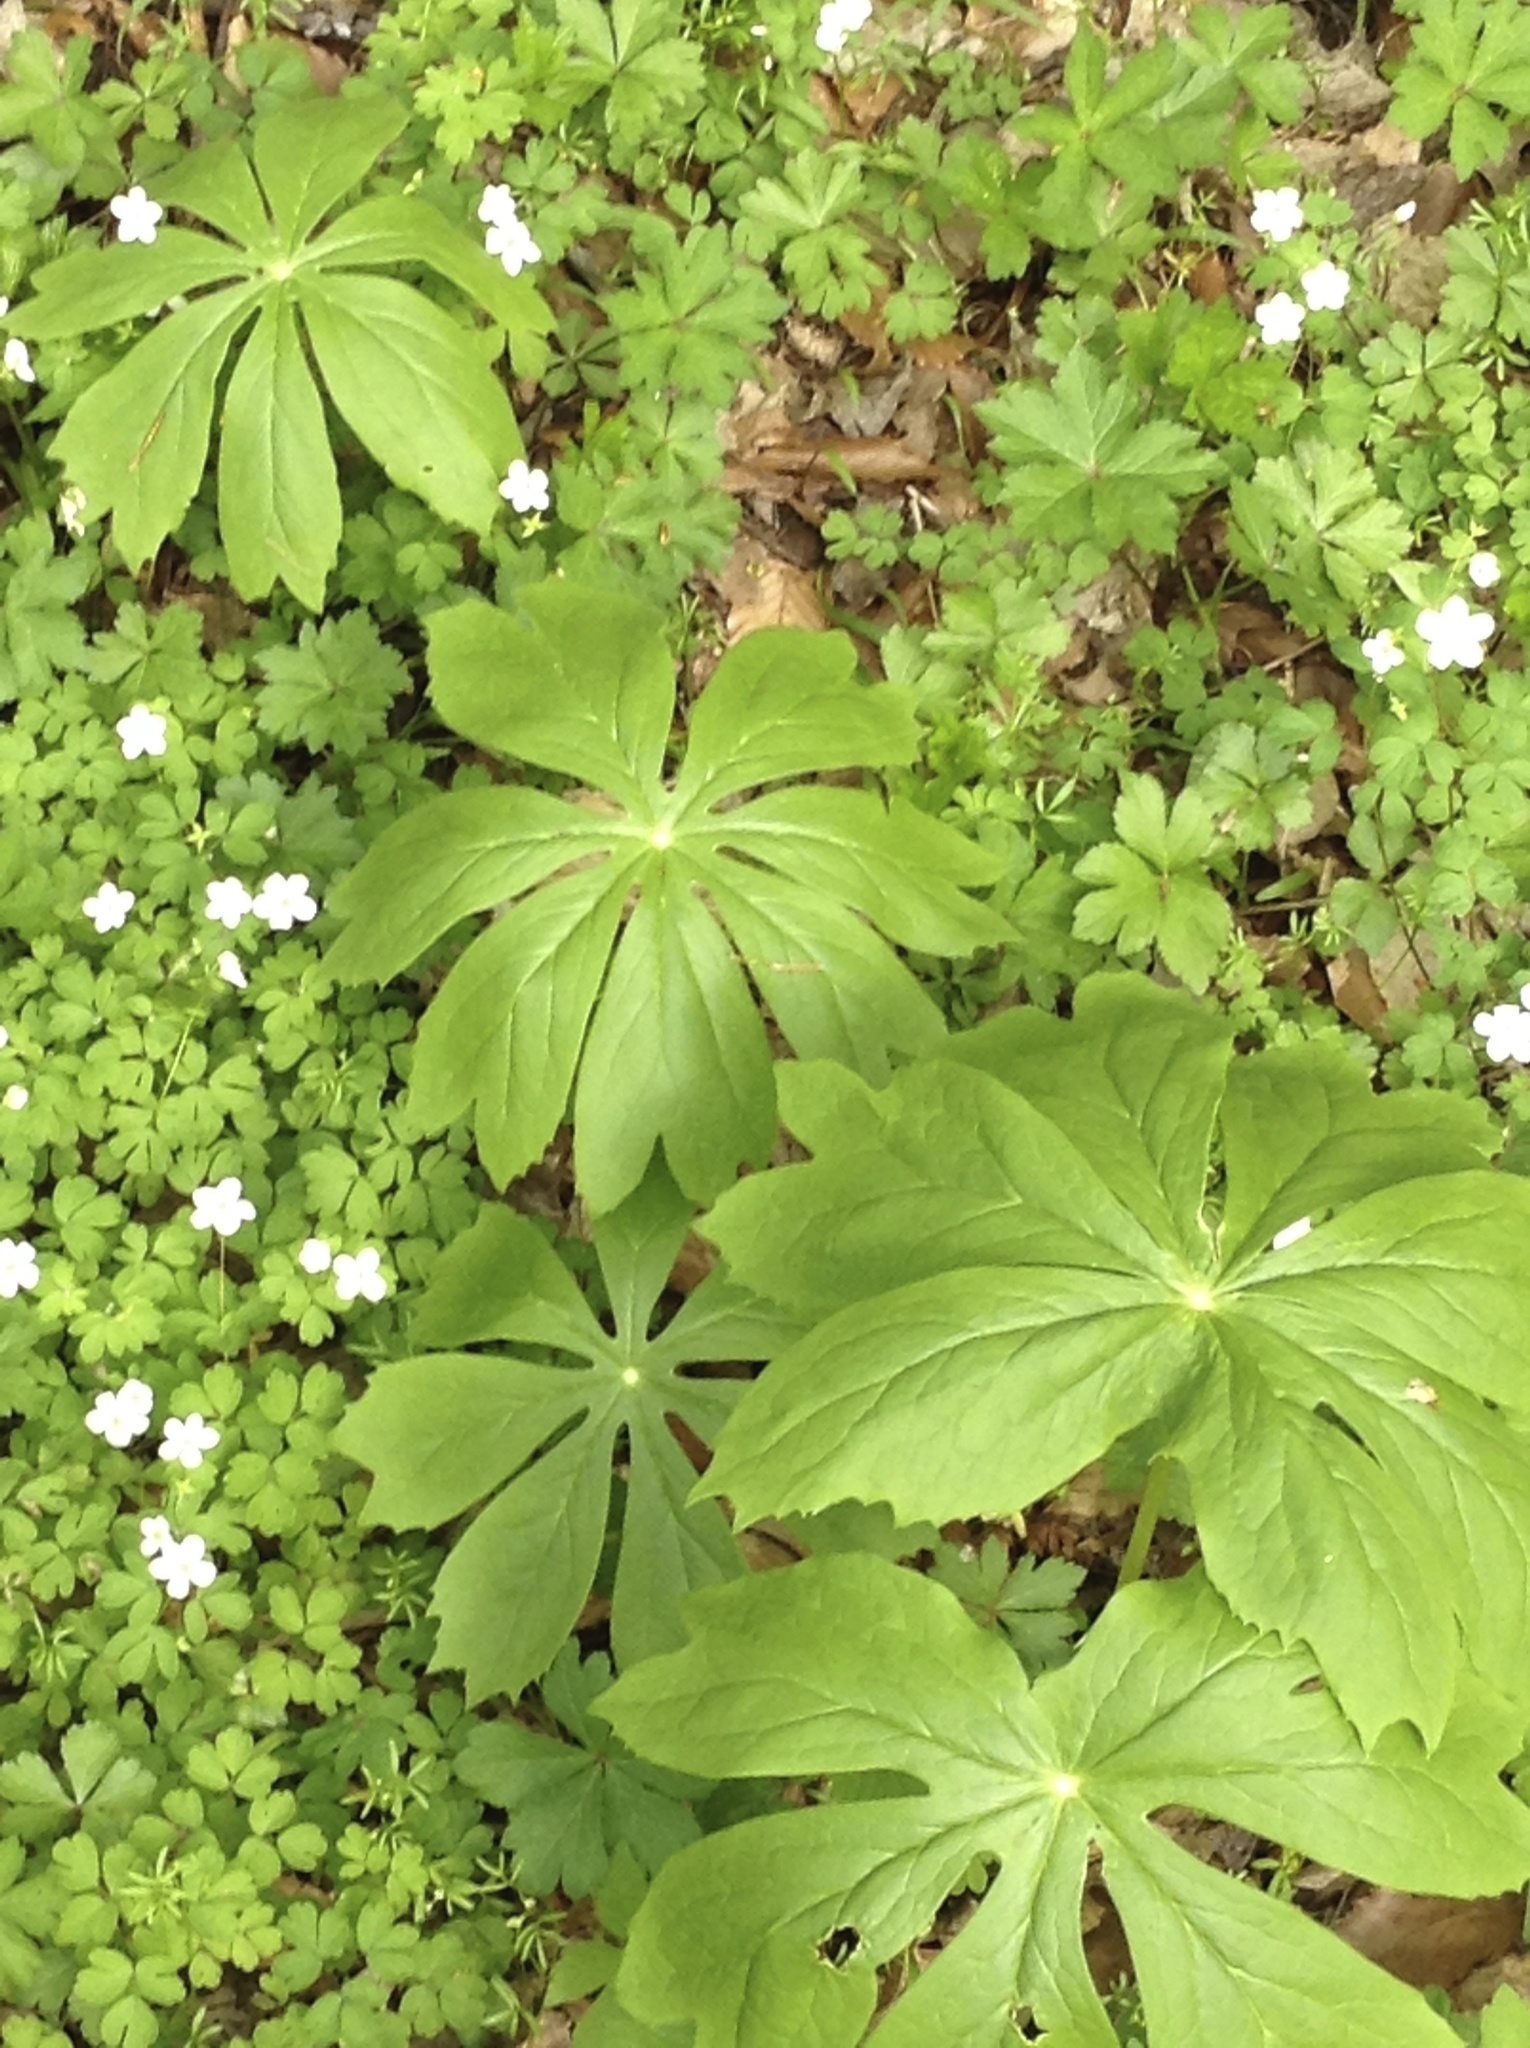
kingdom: Plantae
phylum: Tracheophyta
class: Magnoliopsida
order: Ranunculales
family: Berberidaceae
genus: Podophyllum
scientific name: Podophyllum peltatum
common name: Wild mandrake
